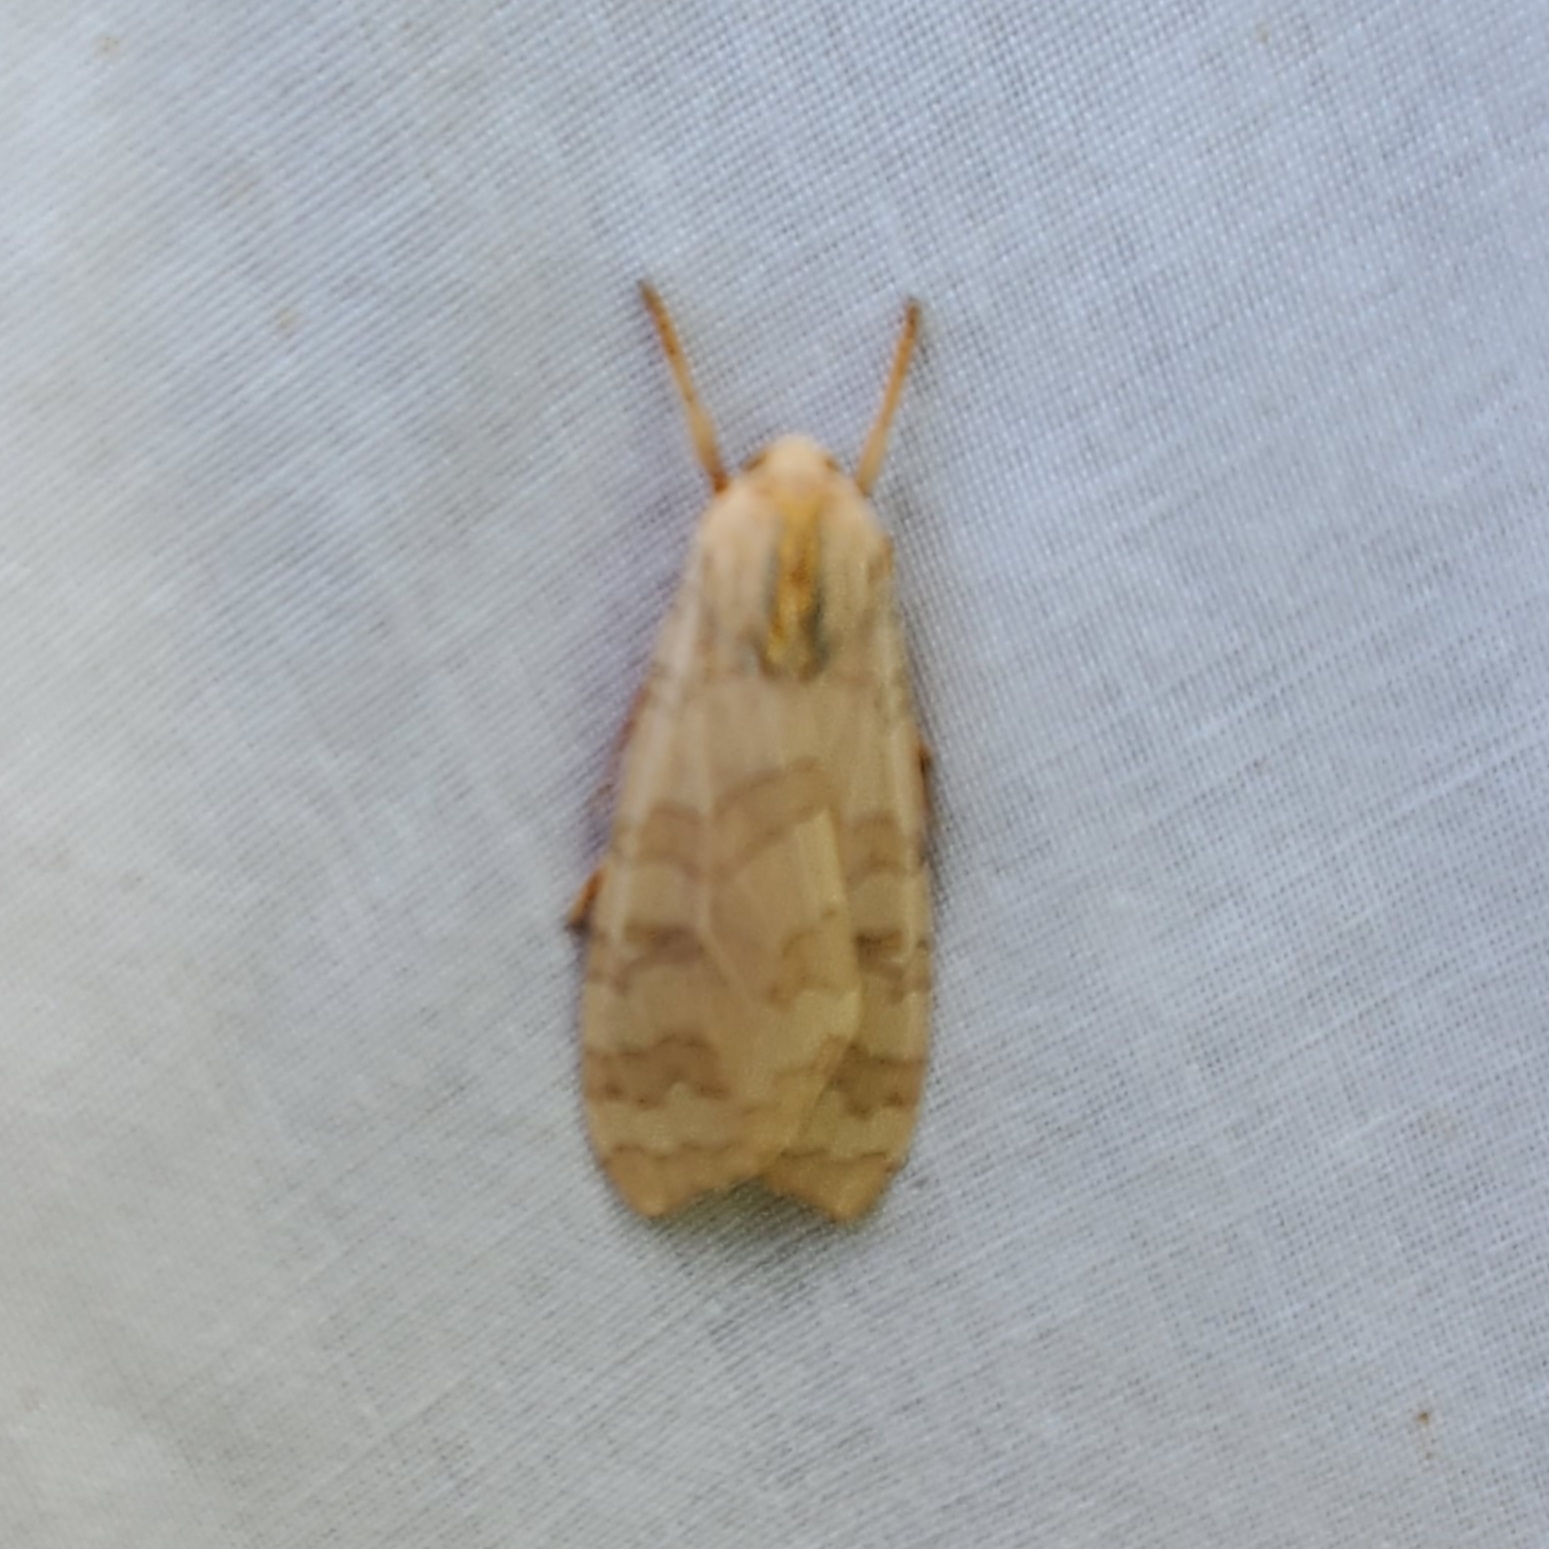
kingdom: Animalia
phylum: Arthropoda
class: Insecta
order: Lepidoptera
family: Erebidae
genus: Halysidota
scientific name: Halysidota
